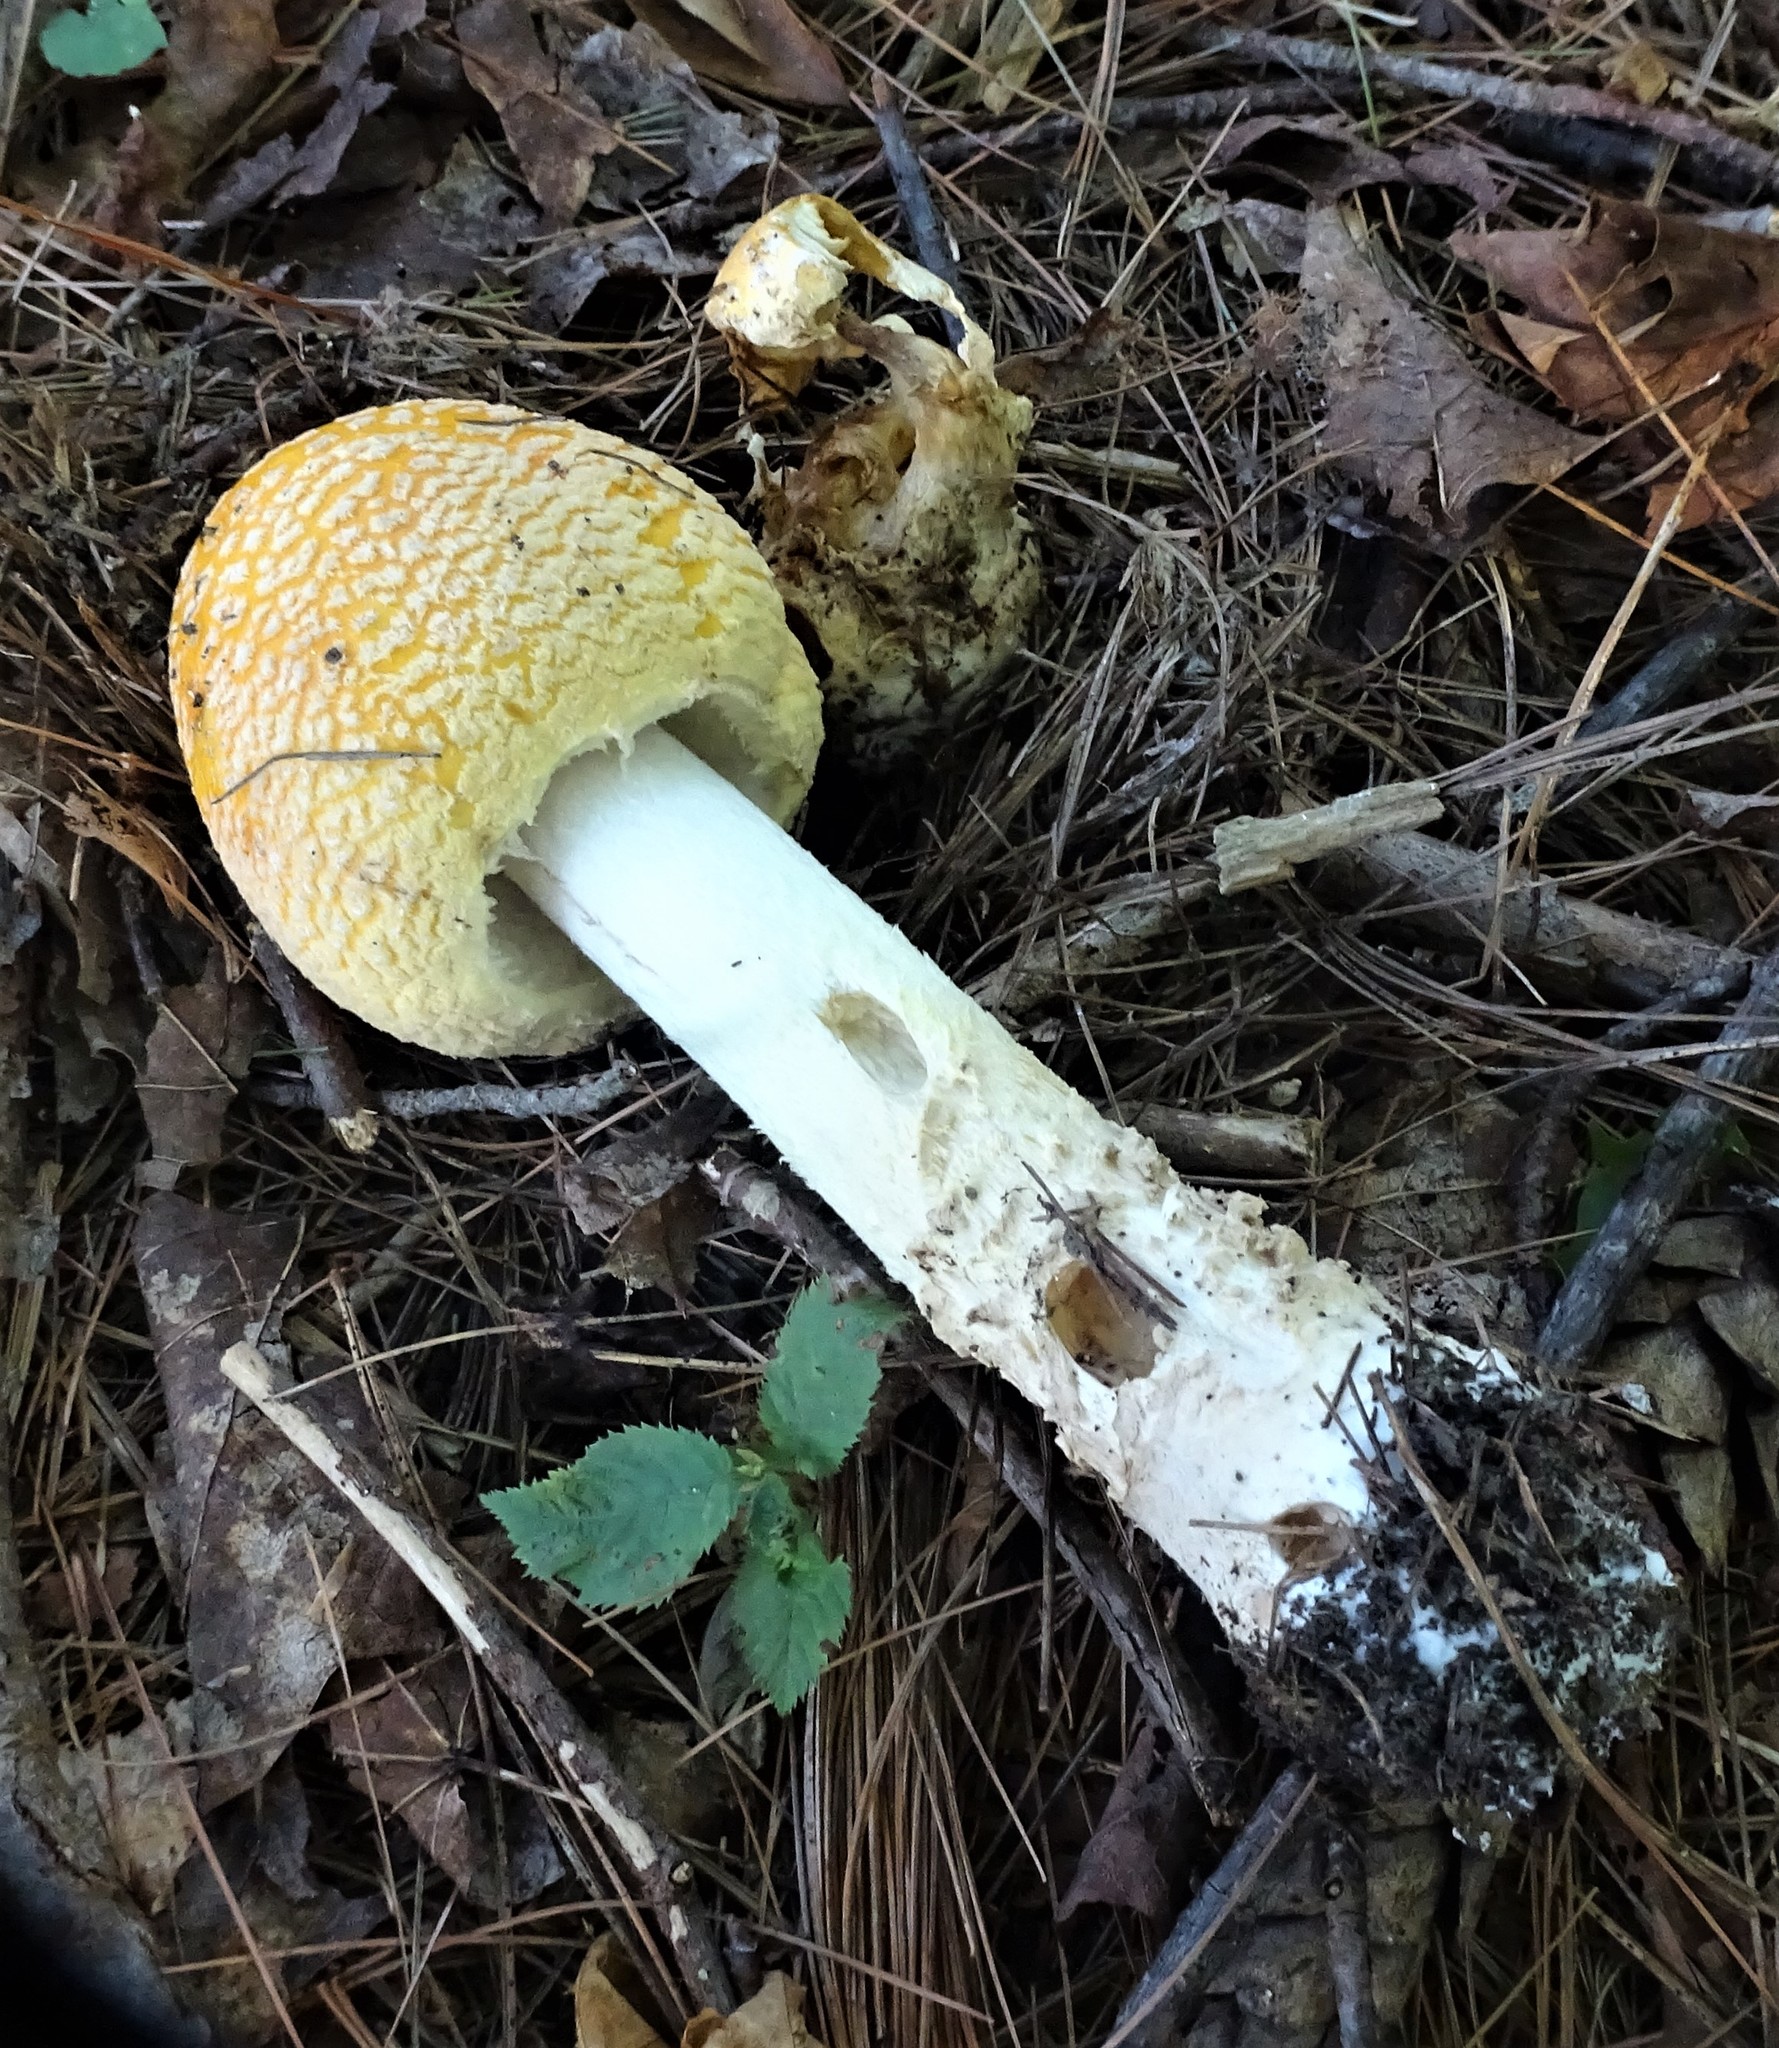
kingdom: Fungi
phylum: Basidiomycota
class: Agaricomycetes
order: Agaricales
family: Amanitaceae
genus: Amanita
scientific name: Amanita muscaria
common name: Fly agaric
